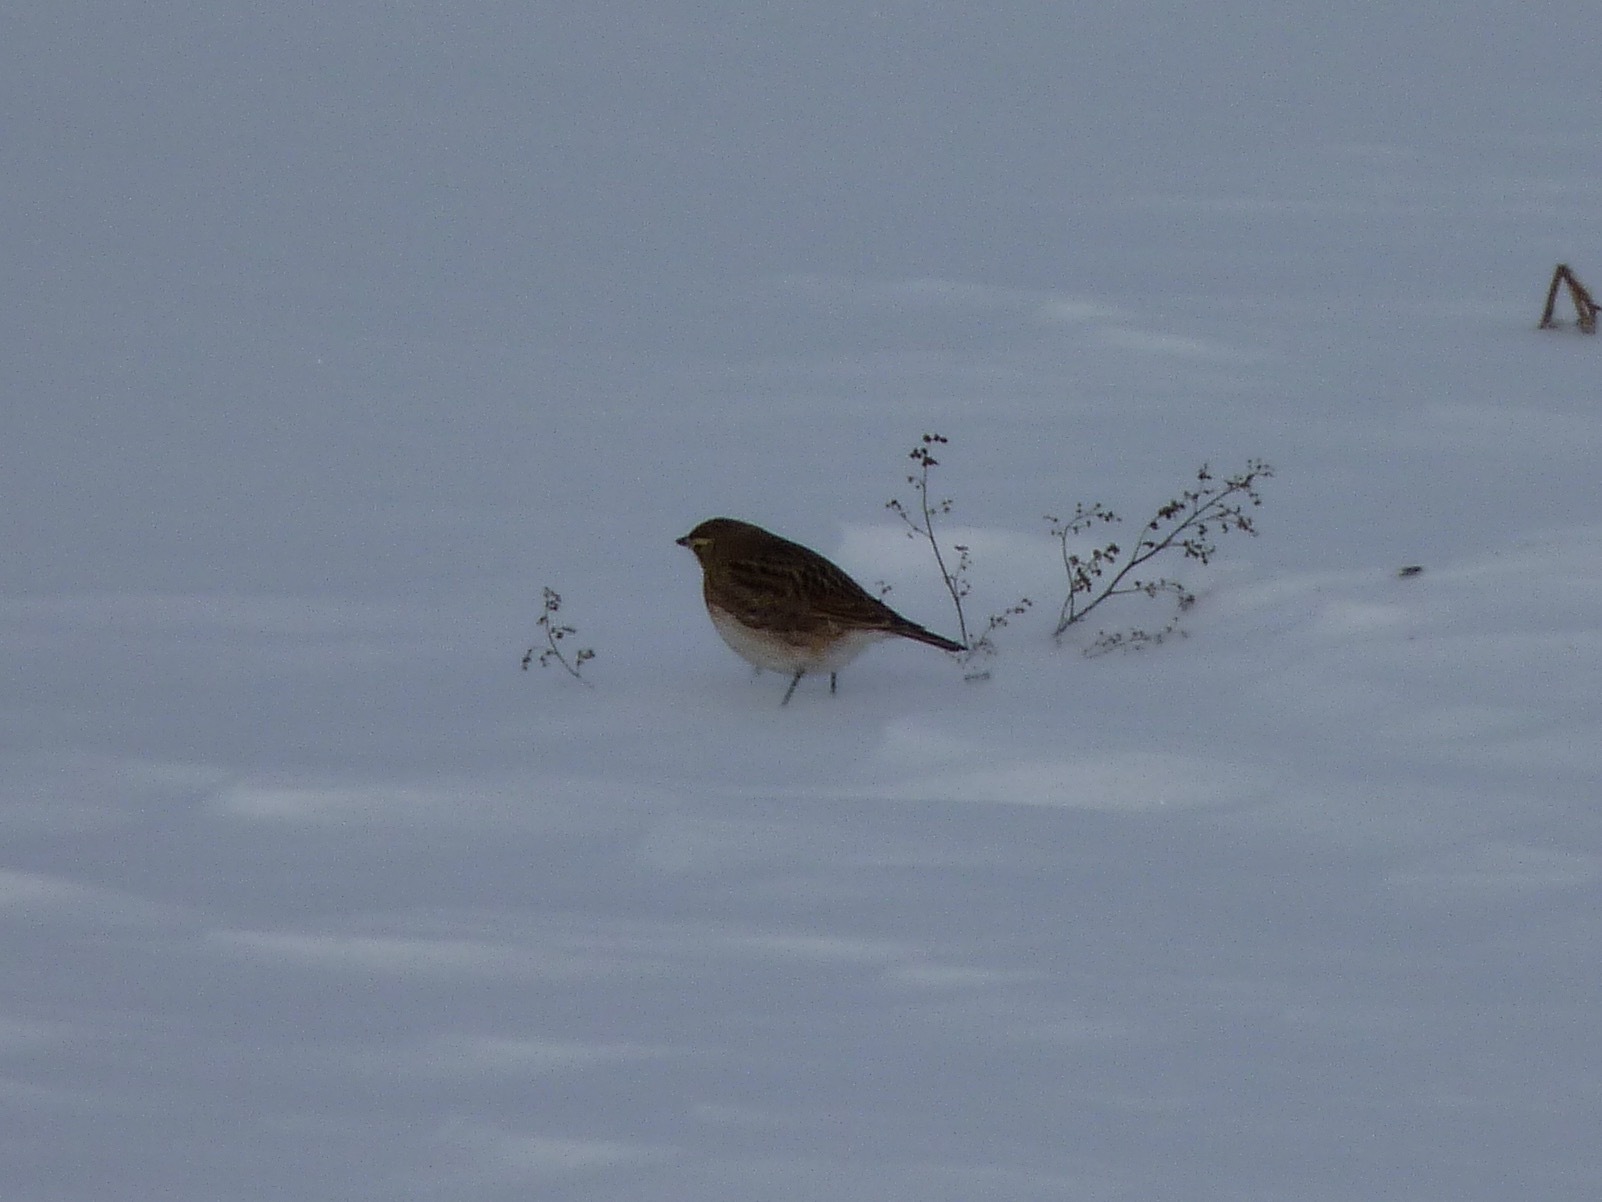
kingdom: Animalia
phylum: Chordata
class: Aves
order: Passeriformes
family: Alaudidae
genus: Eremophila
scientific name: Eremophila alpestris
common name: Horned lark
